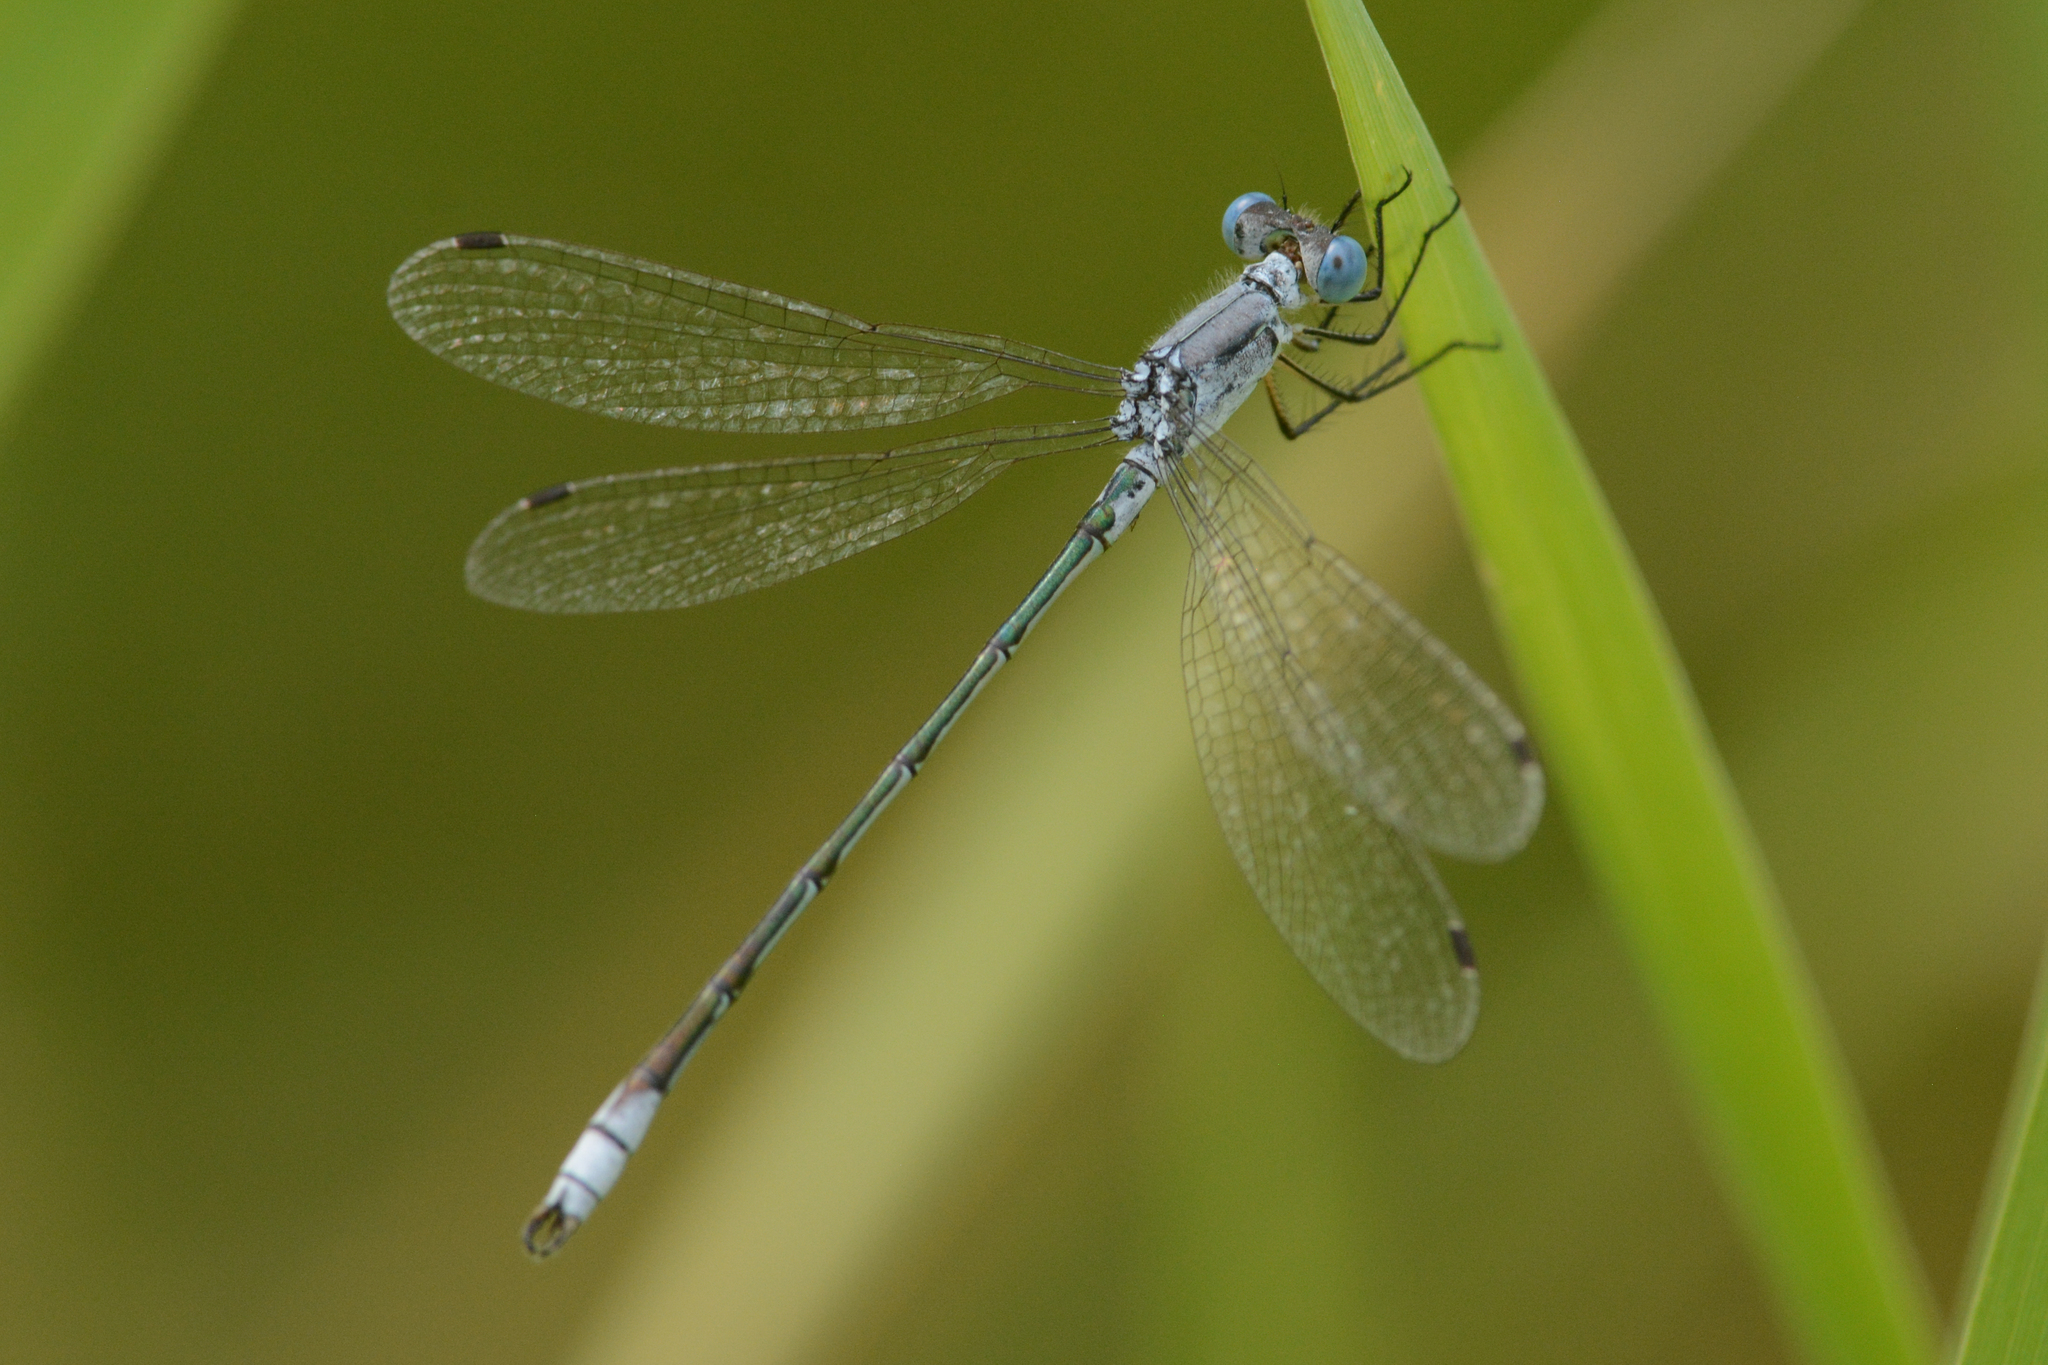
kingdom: Animalia
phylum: Arthropoda
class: Insecta
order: Odonata
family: Lestidae
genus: Lestes
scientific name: Lestes unguiculatus
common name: Lyre-tipped spreadwing
